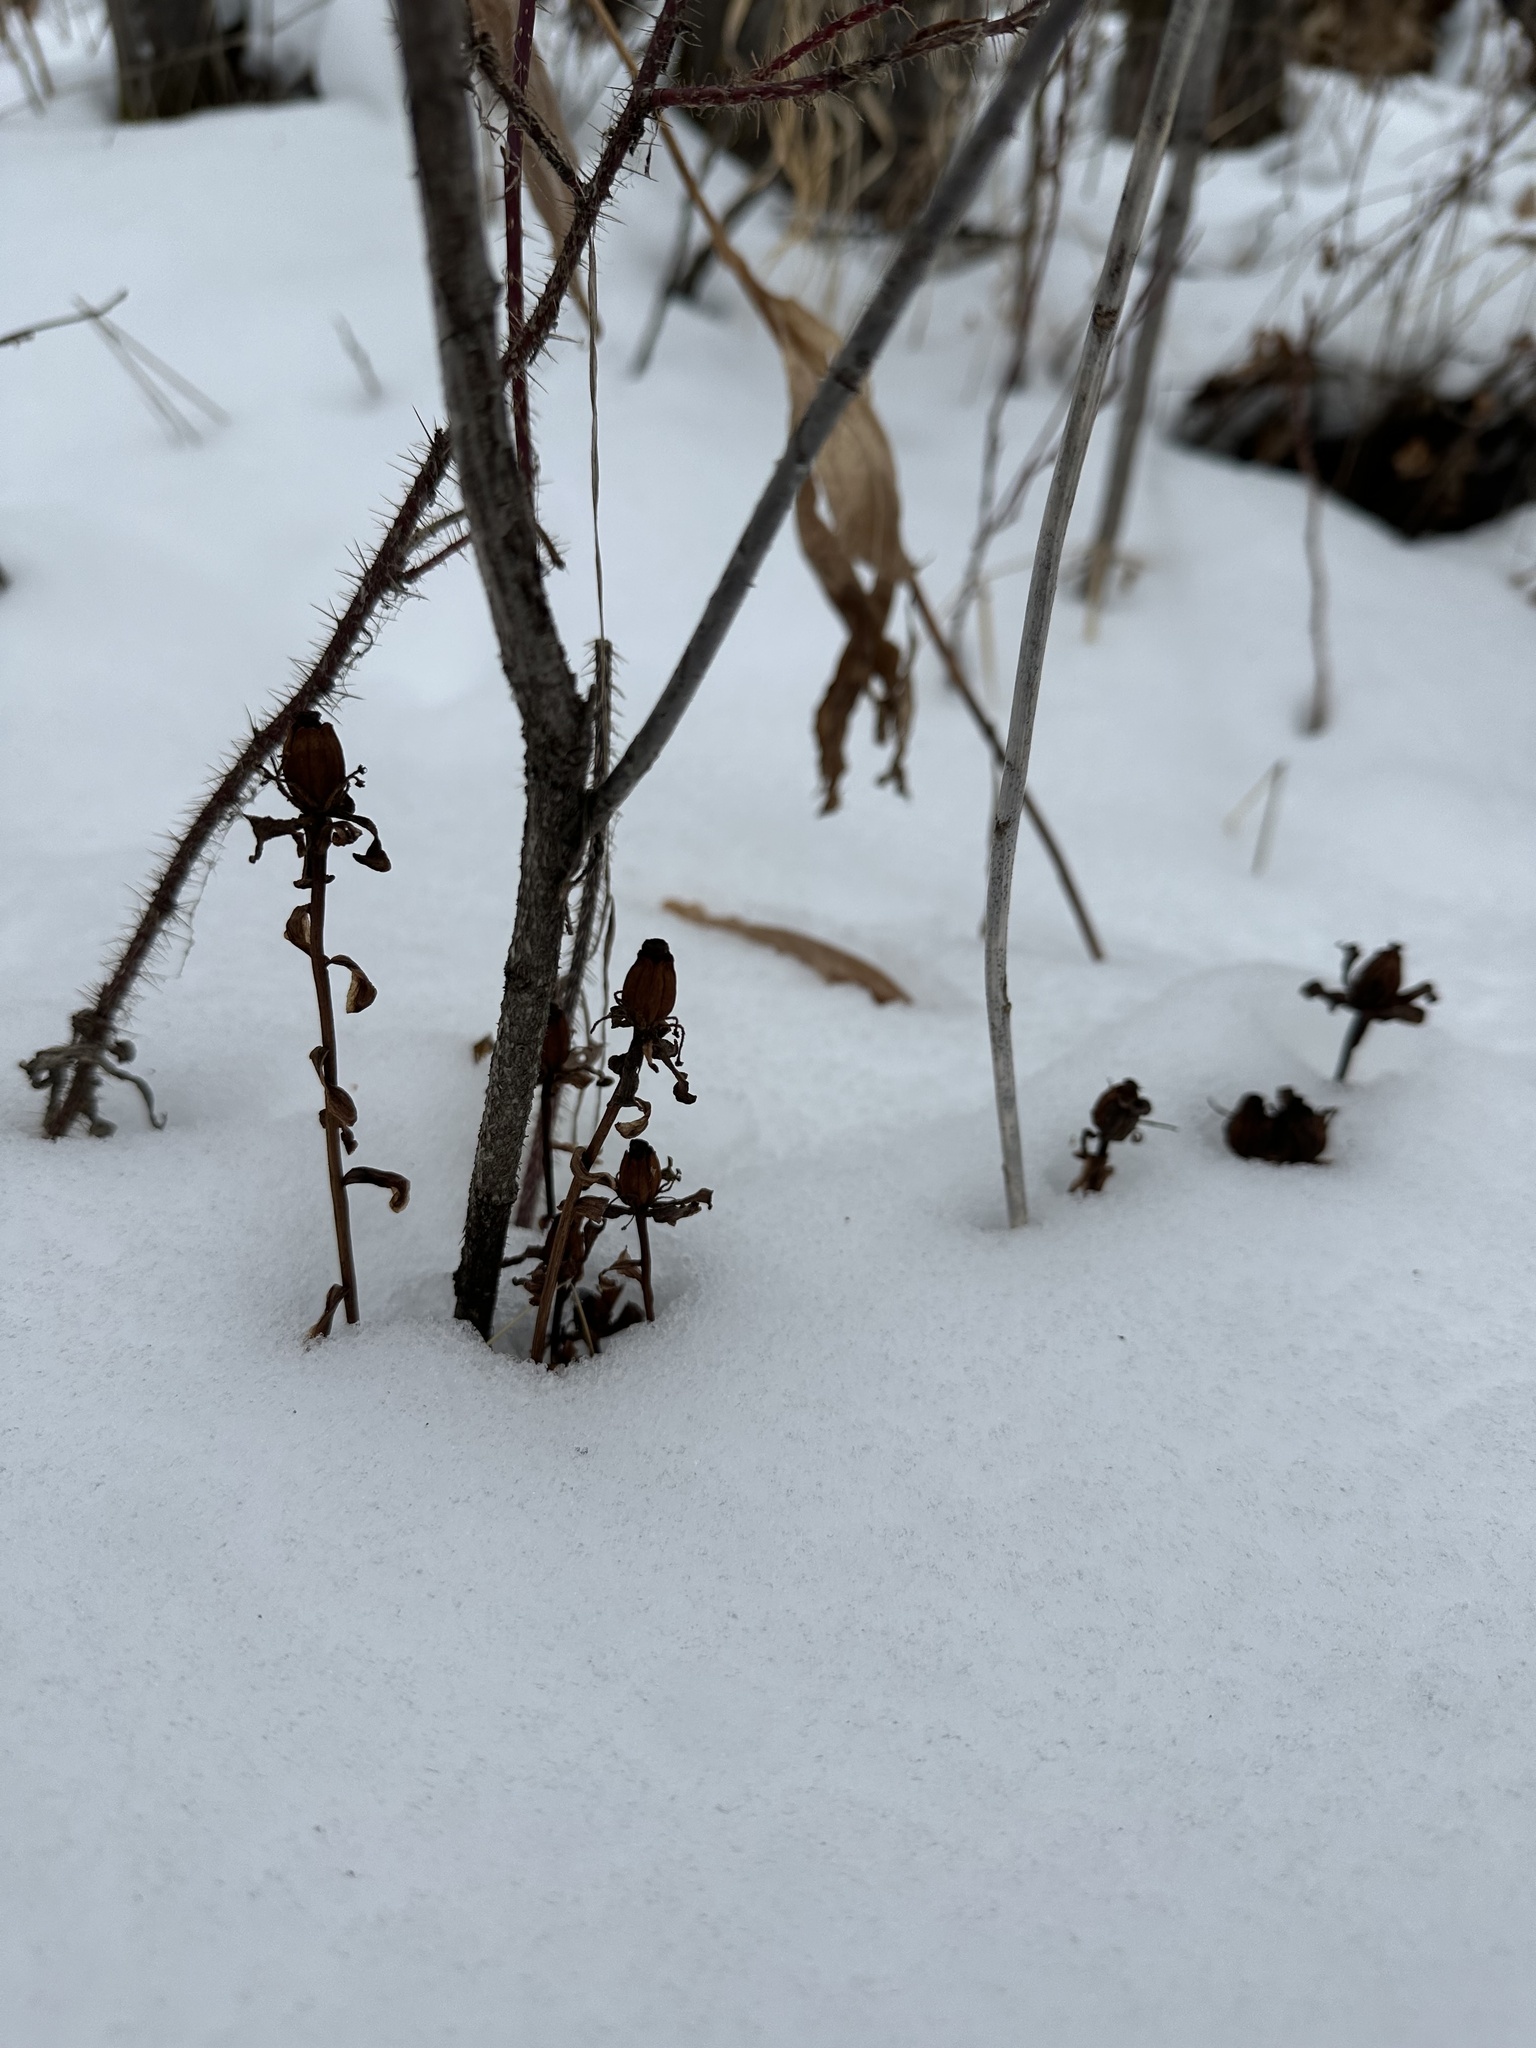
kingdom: Plantae
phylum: Tracheophyta
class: Magnoliopsida
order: Ericales
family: Ericaceae
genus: Monotropa
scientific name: Monotropa uniflora
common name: Convulsion root
